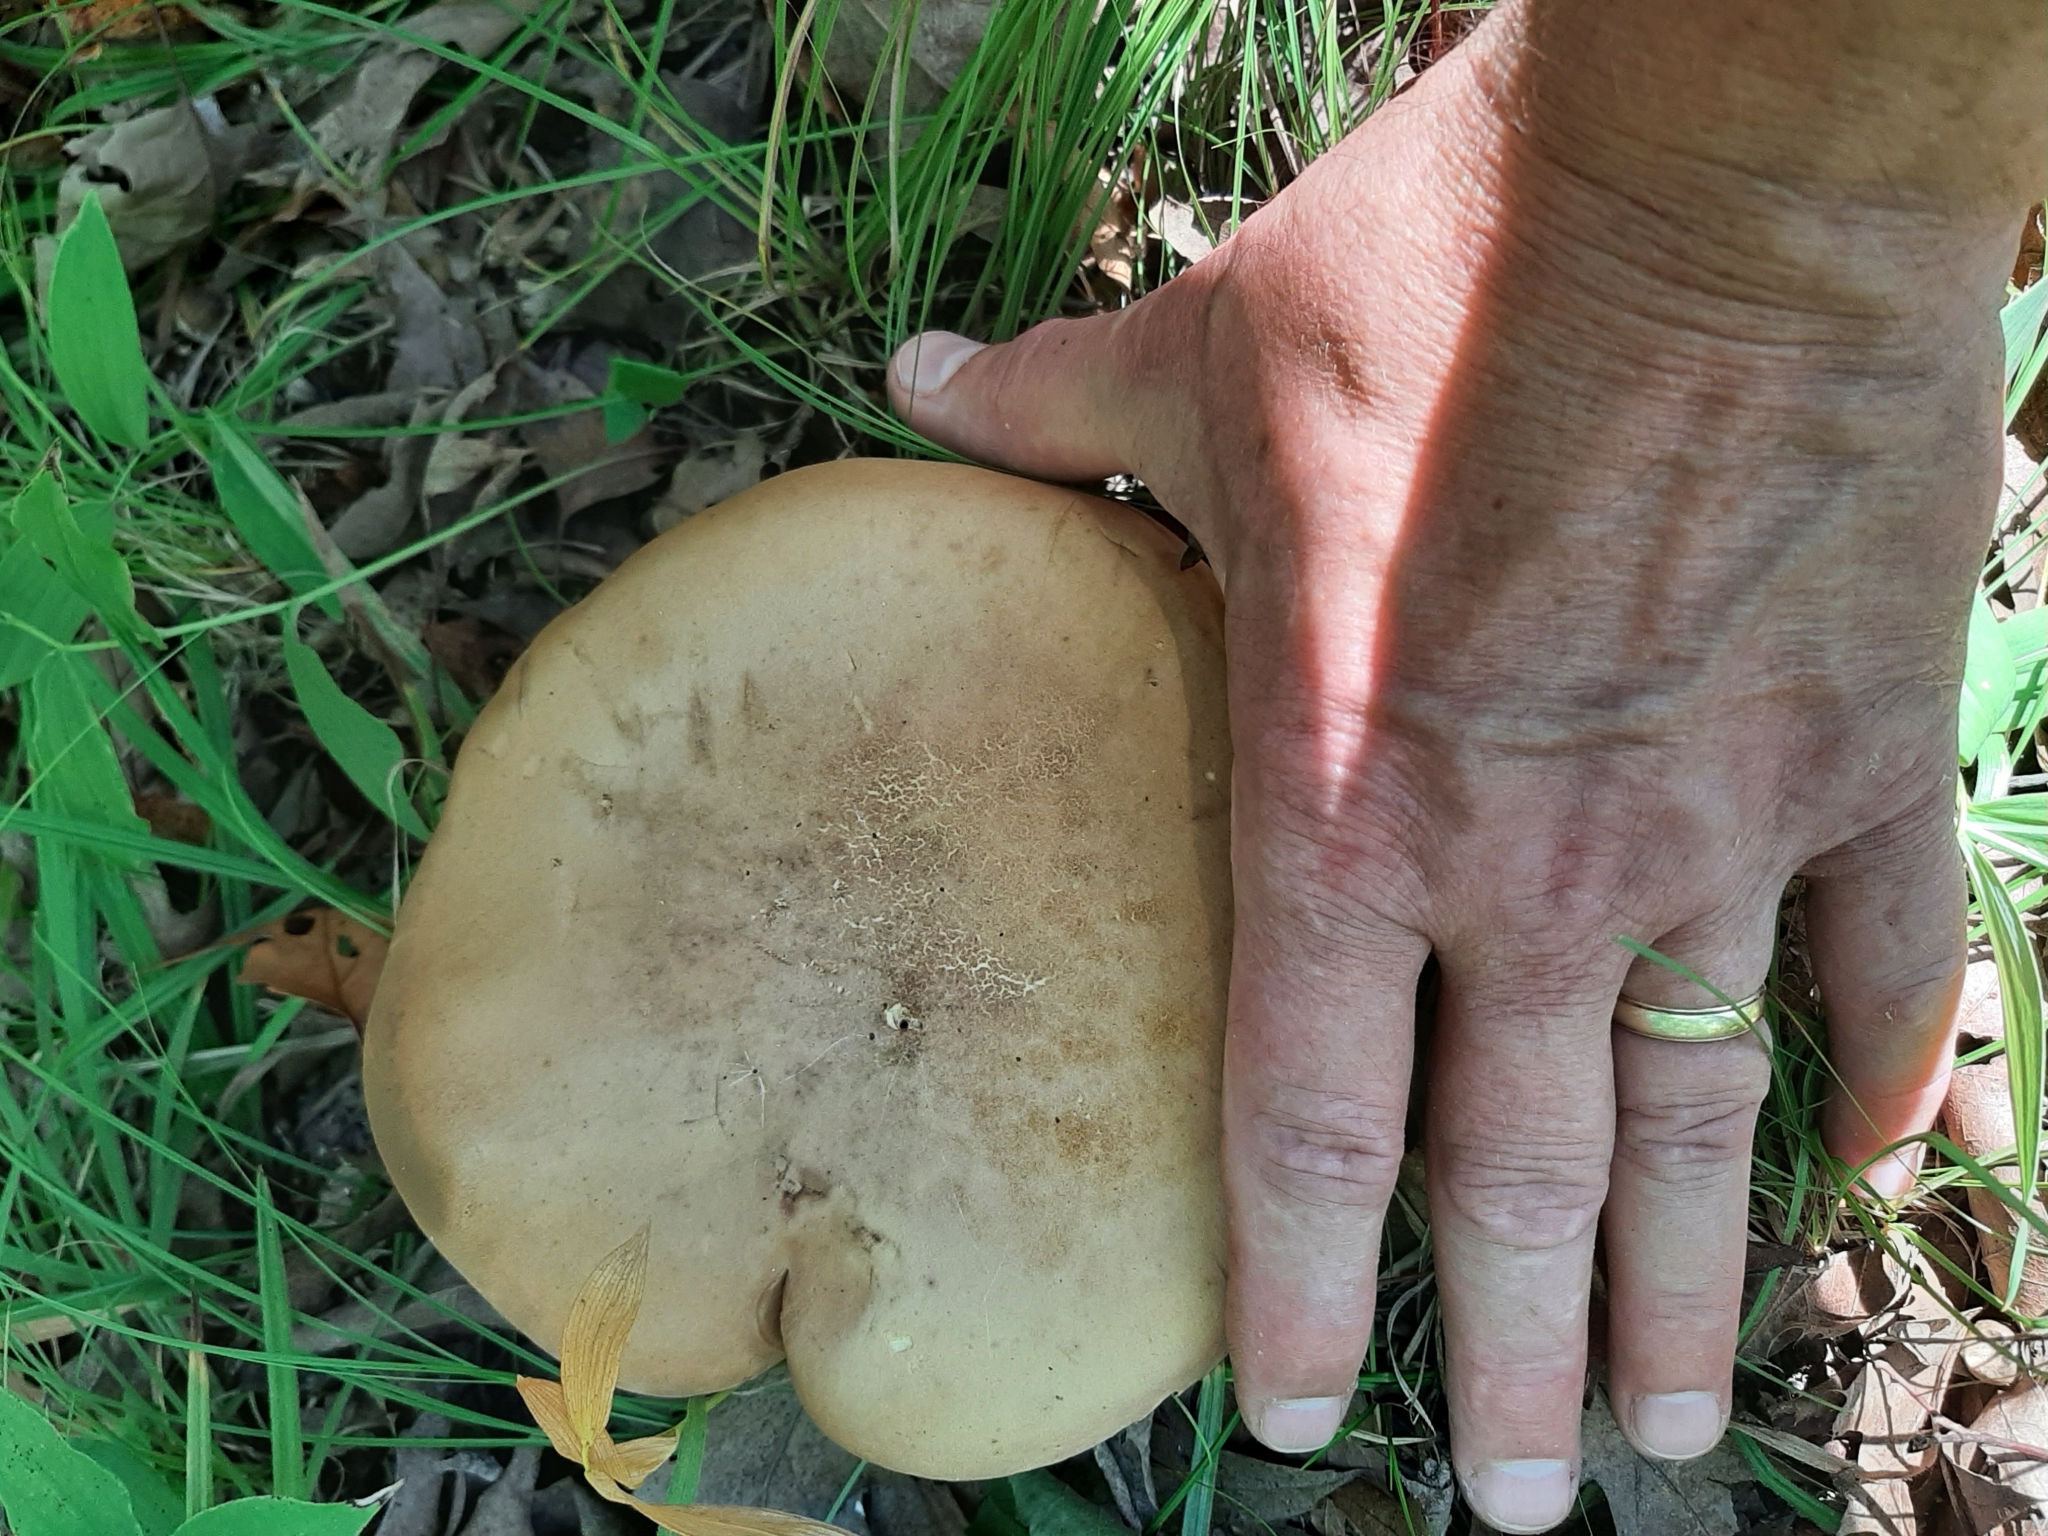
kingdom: Fungi
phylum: Basidiomycota
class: Agaricomycetes
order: Boletales
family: Boletaceae
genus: Lanmaoa
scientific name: Lanmaoa pseudosensibilis
